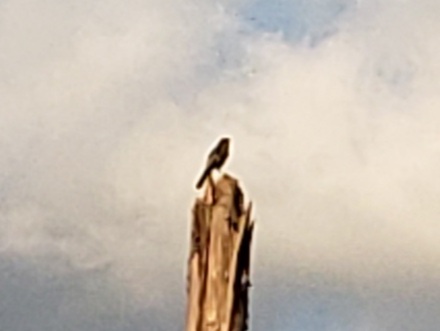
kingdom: Animalia
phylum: Chordata
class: Aves
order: Passeriformes
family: Corvidae
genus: Aphelocoma
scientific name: Aphelocoma coerulescens
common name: Florida scrub jay
